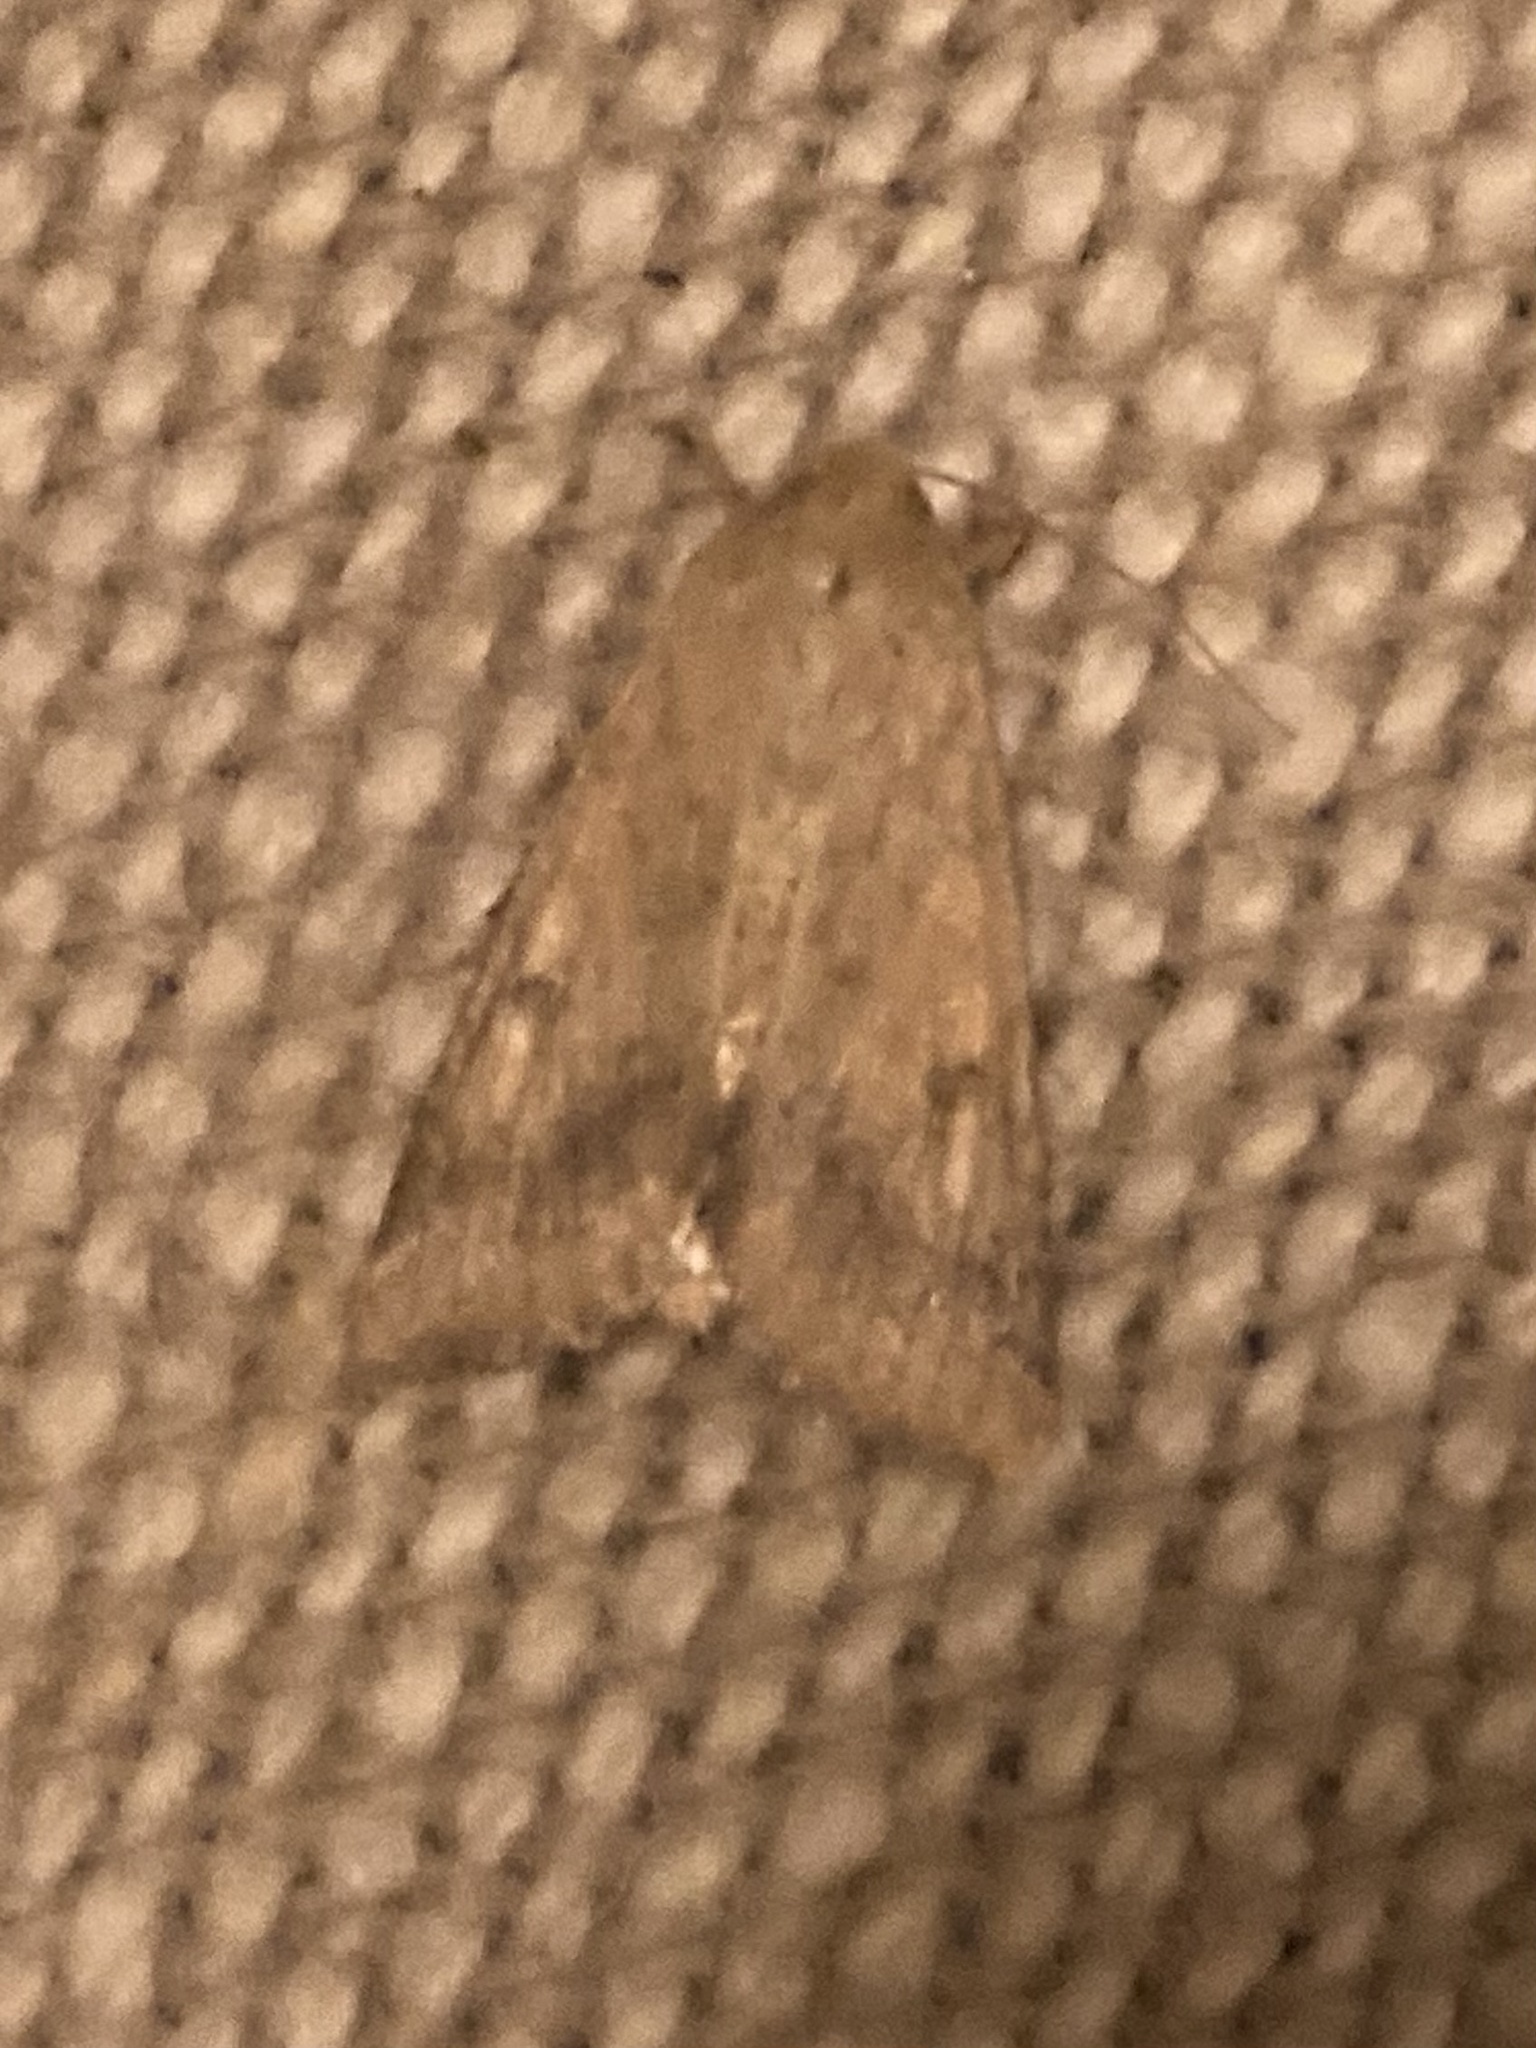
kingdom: Animalia
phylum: Arthropoda
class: Insecta
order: Lepidoptera
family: Noctuidae
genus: Helicoverpa
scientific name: Helicoverpa armigera
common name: Cotton bollworm
